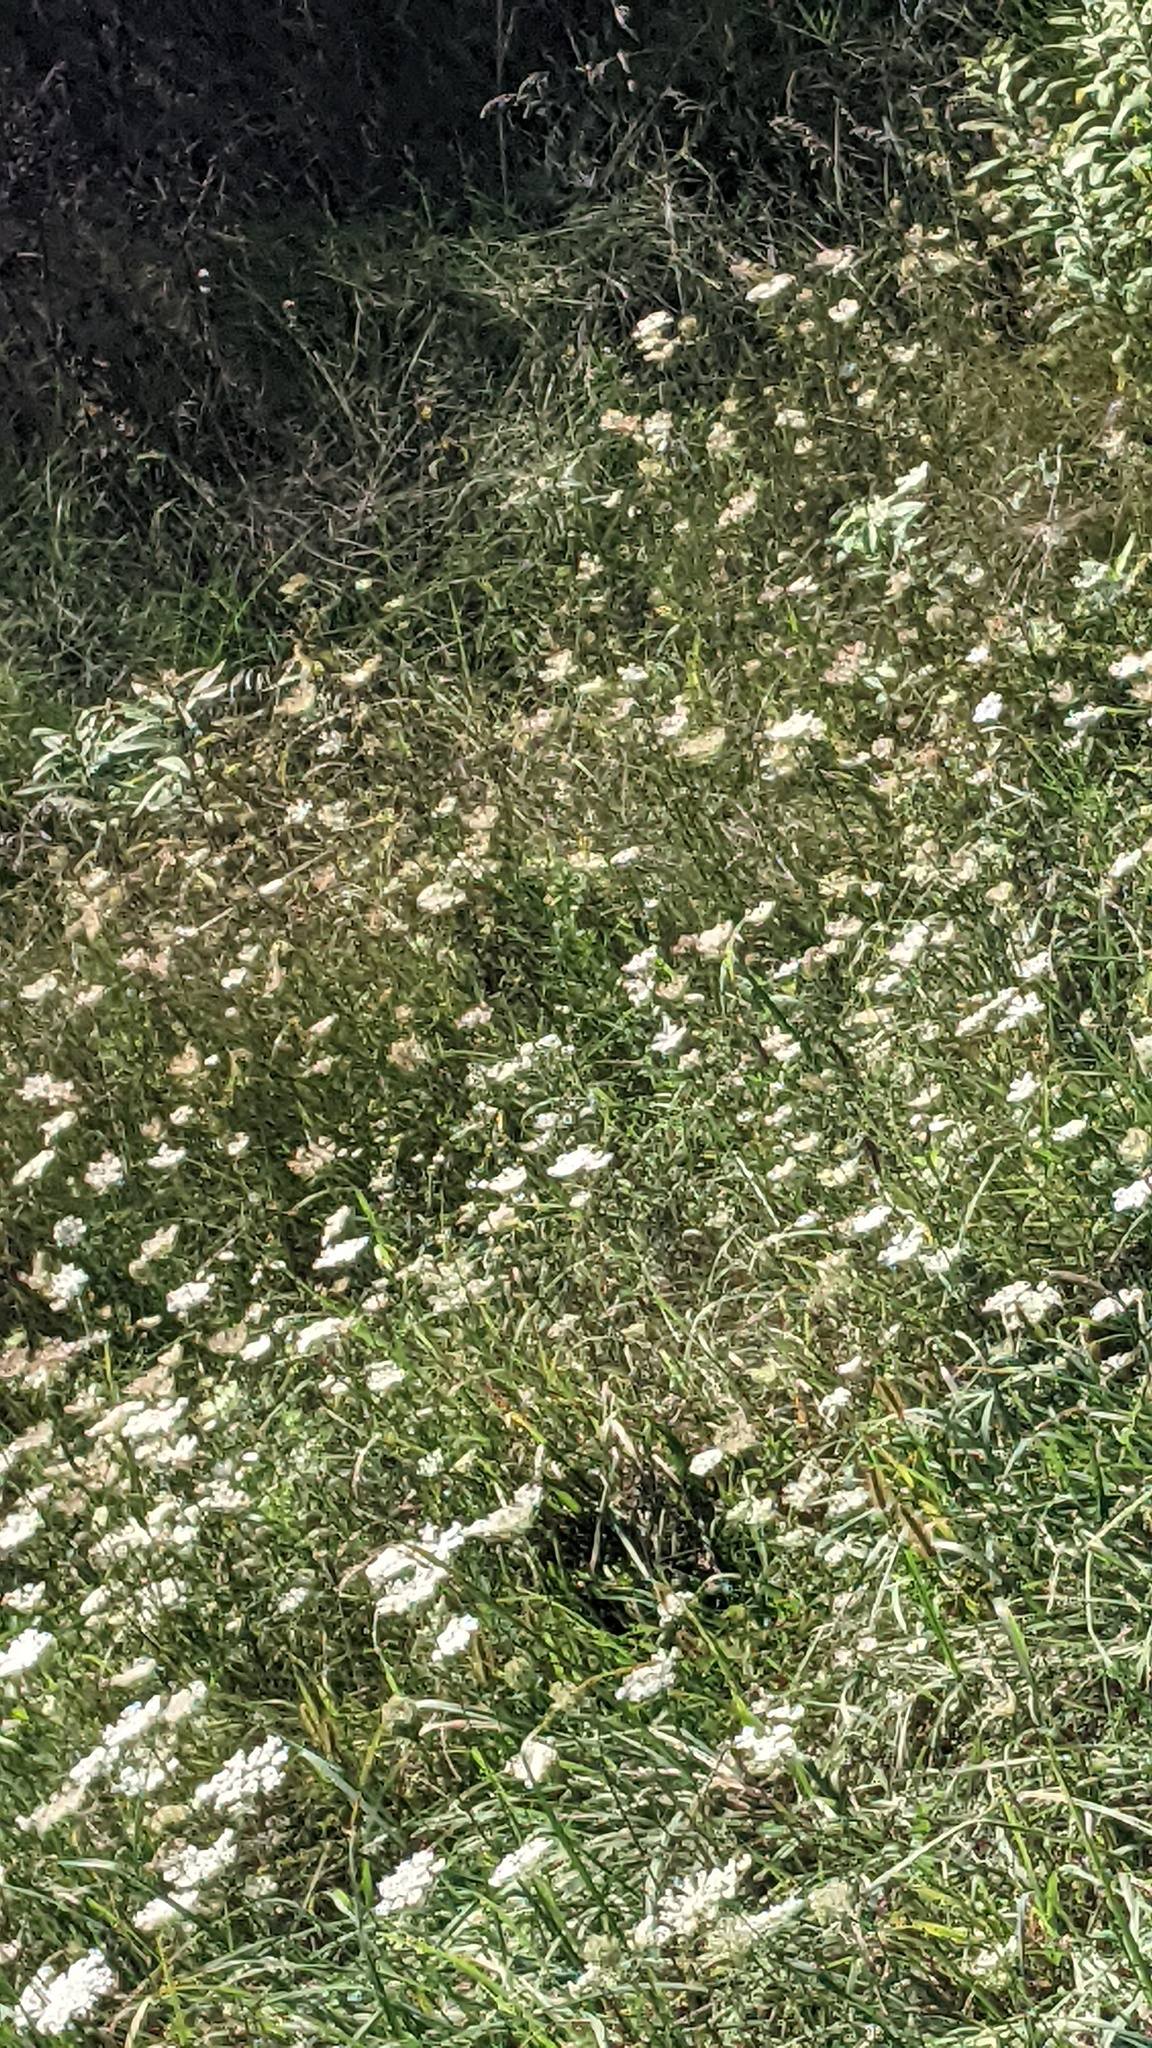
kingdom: Plantae
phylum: Tracheophyta
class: Magnoliopsida
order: Apiales
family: Apiaceae
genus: Daucus
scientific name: Daucus carota
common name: Wild carrot
